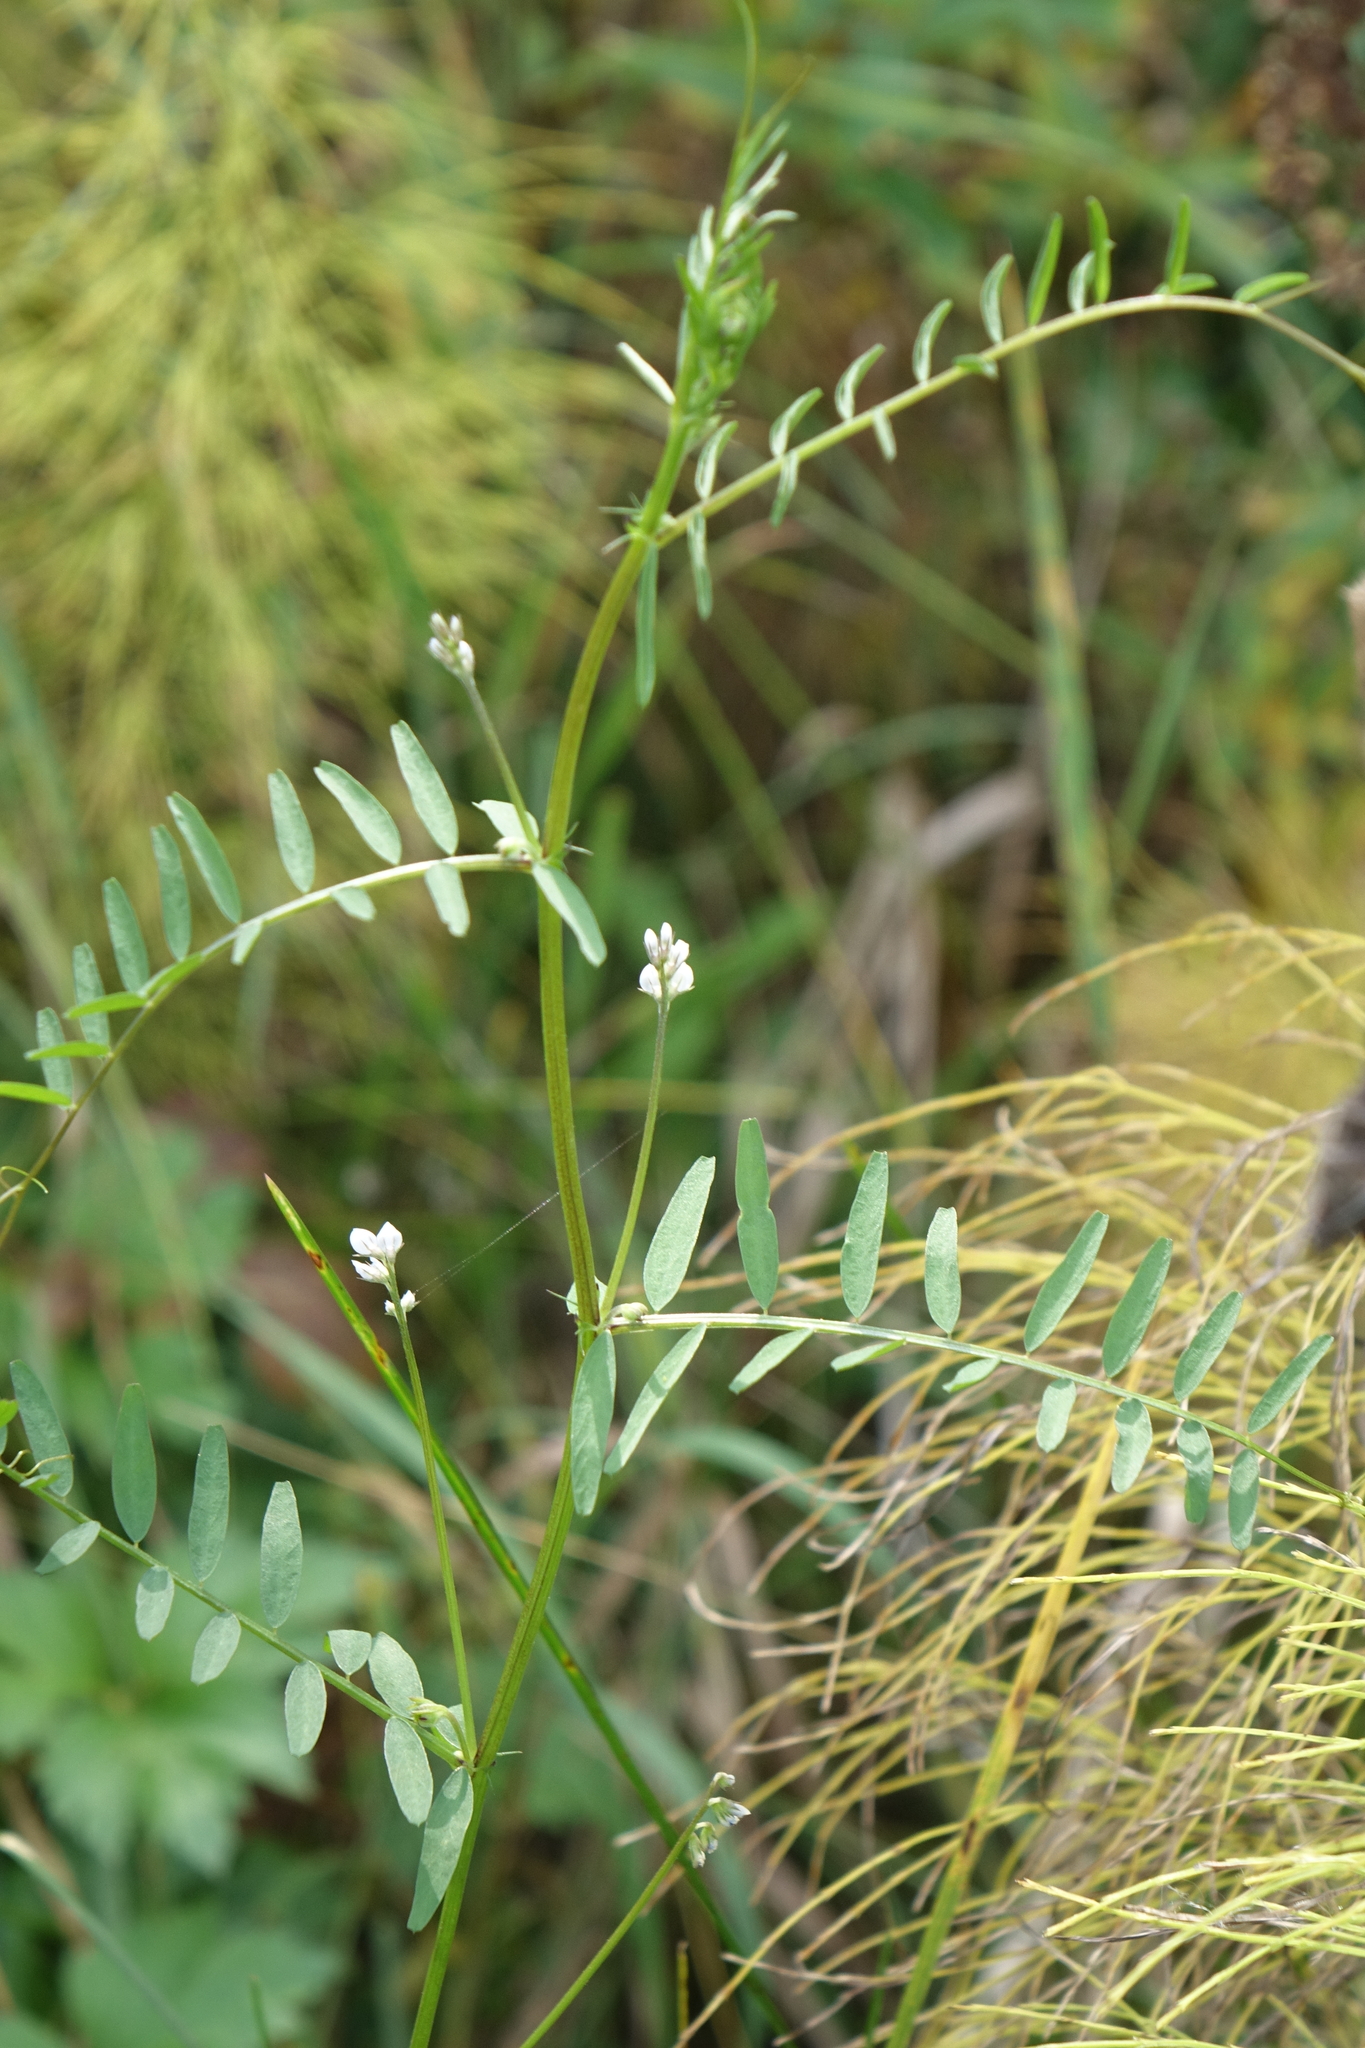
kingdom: Plantae
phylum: Tracheophyta
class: Magnoliopsida
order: Fabales
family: Fabaceae
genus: Vicia
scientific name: Vicia hirsuta
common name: Tiny vetch
